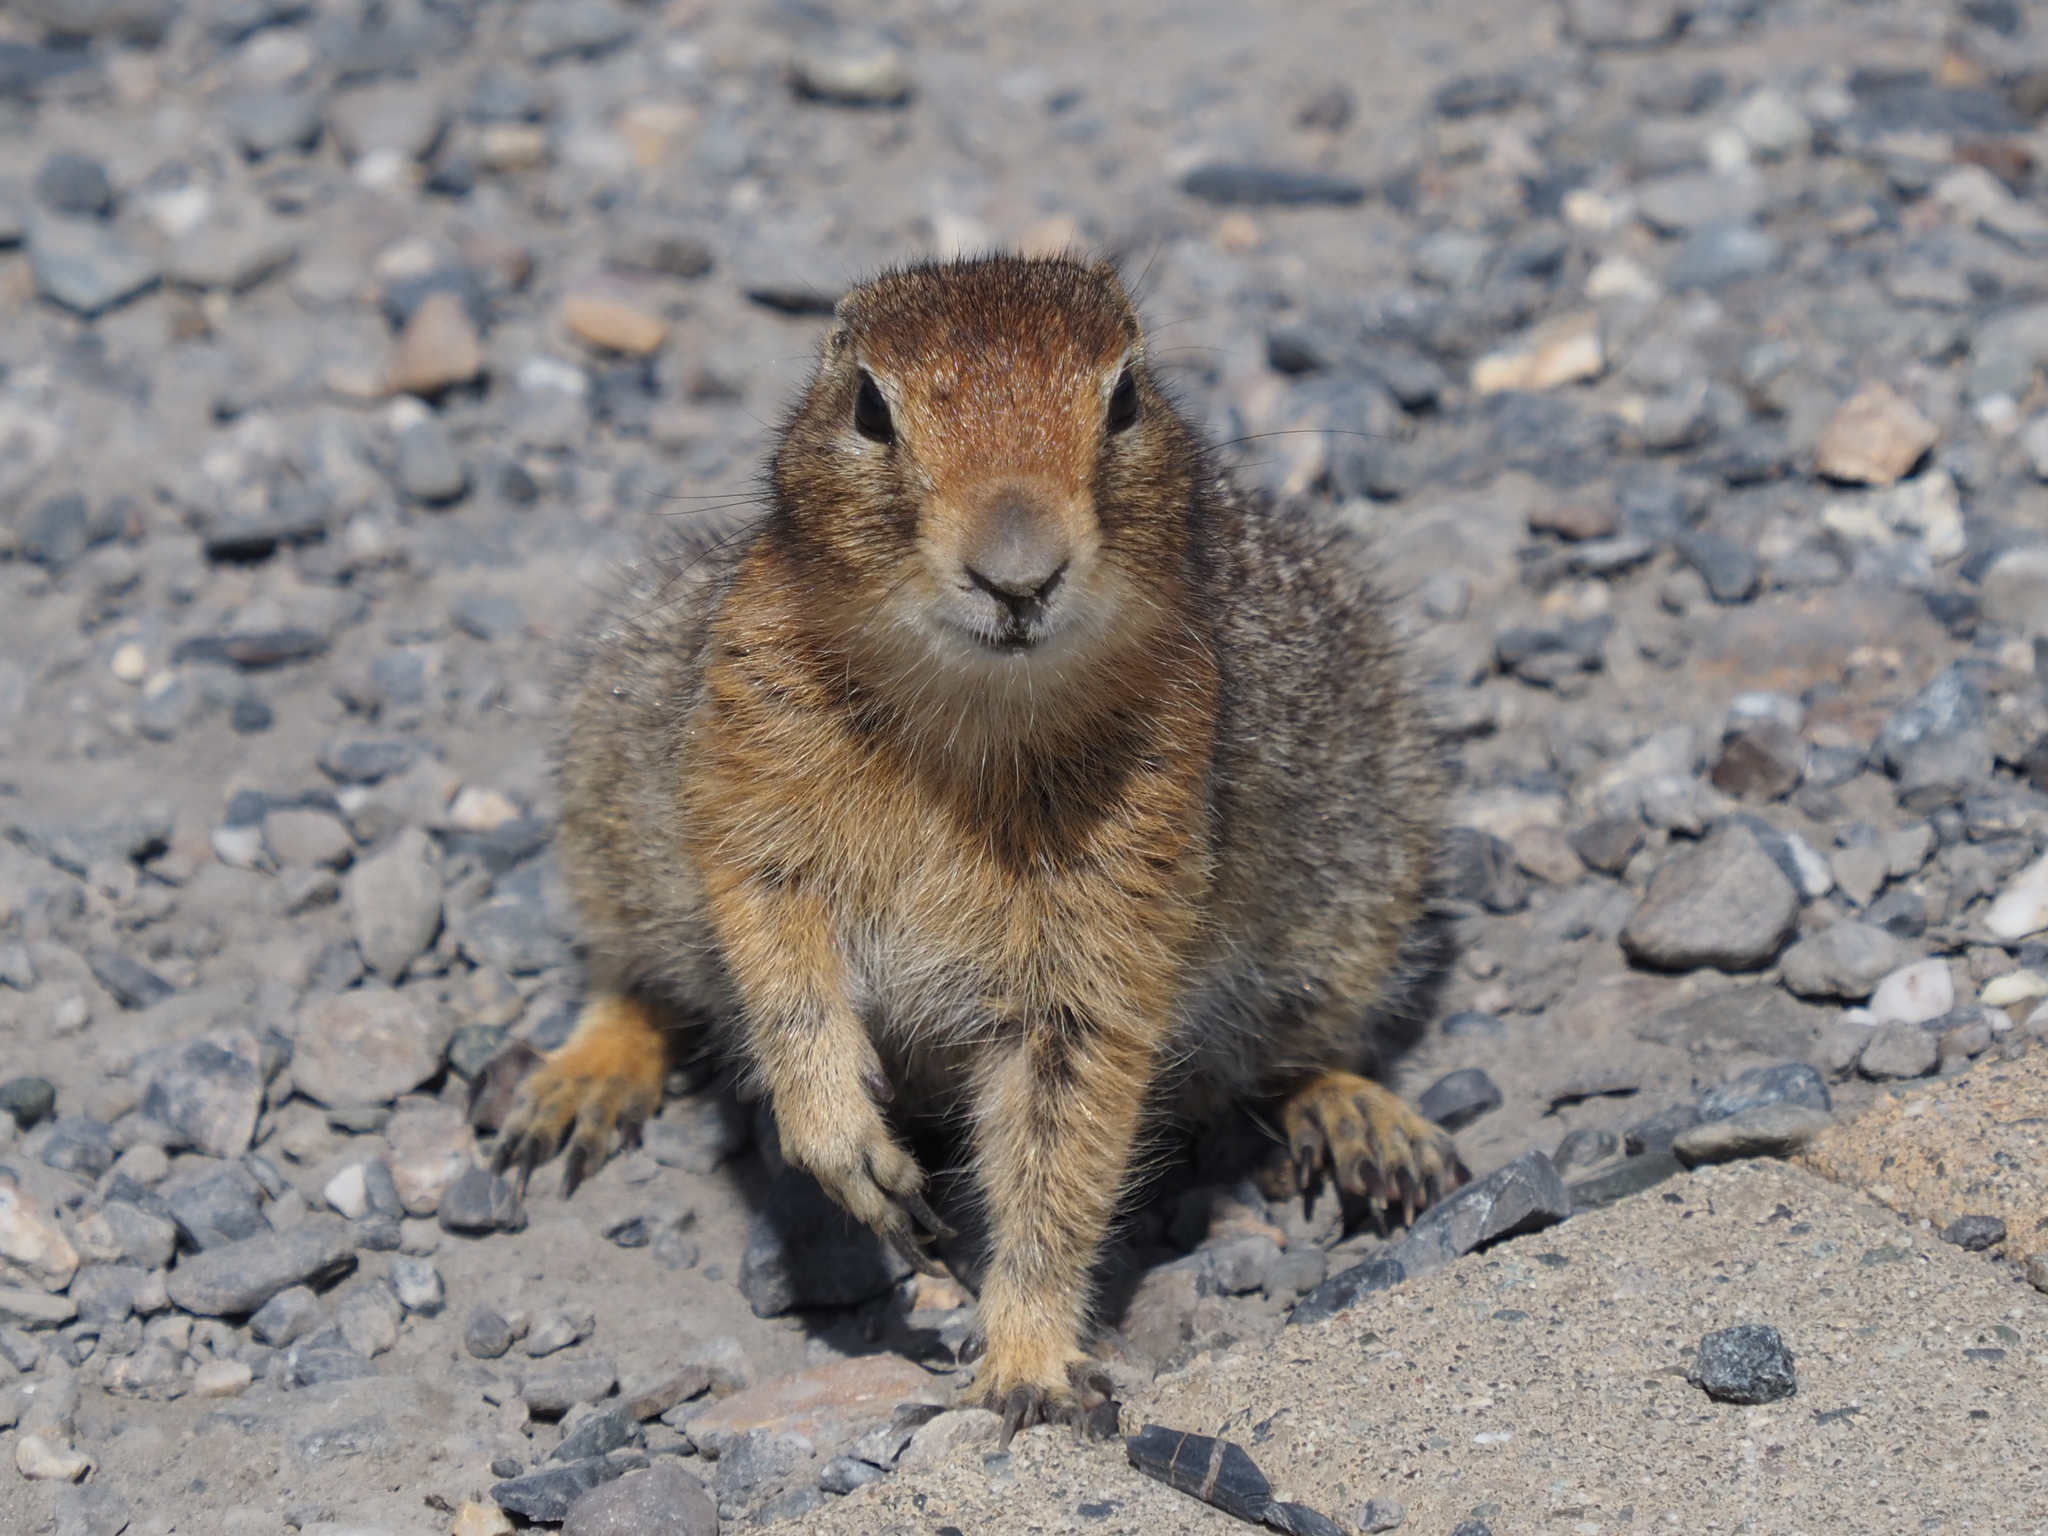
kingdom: Animalia
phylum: Chordata
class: Mammalia
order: Rodentia
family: Sciuridae
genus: Urocitellus
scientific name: Urocitellus parryii
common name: Arctic ground squirrel
